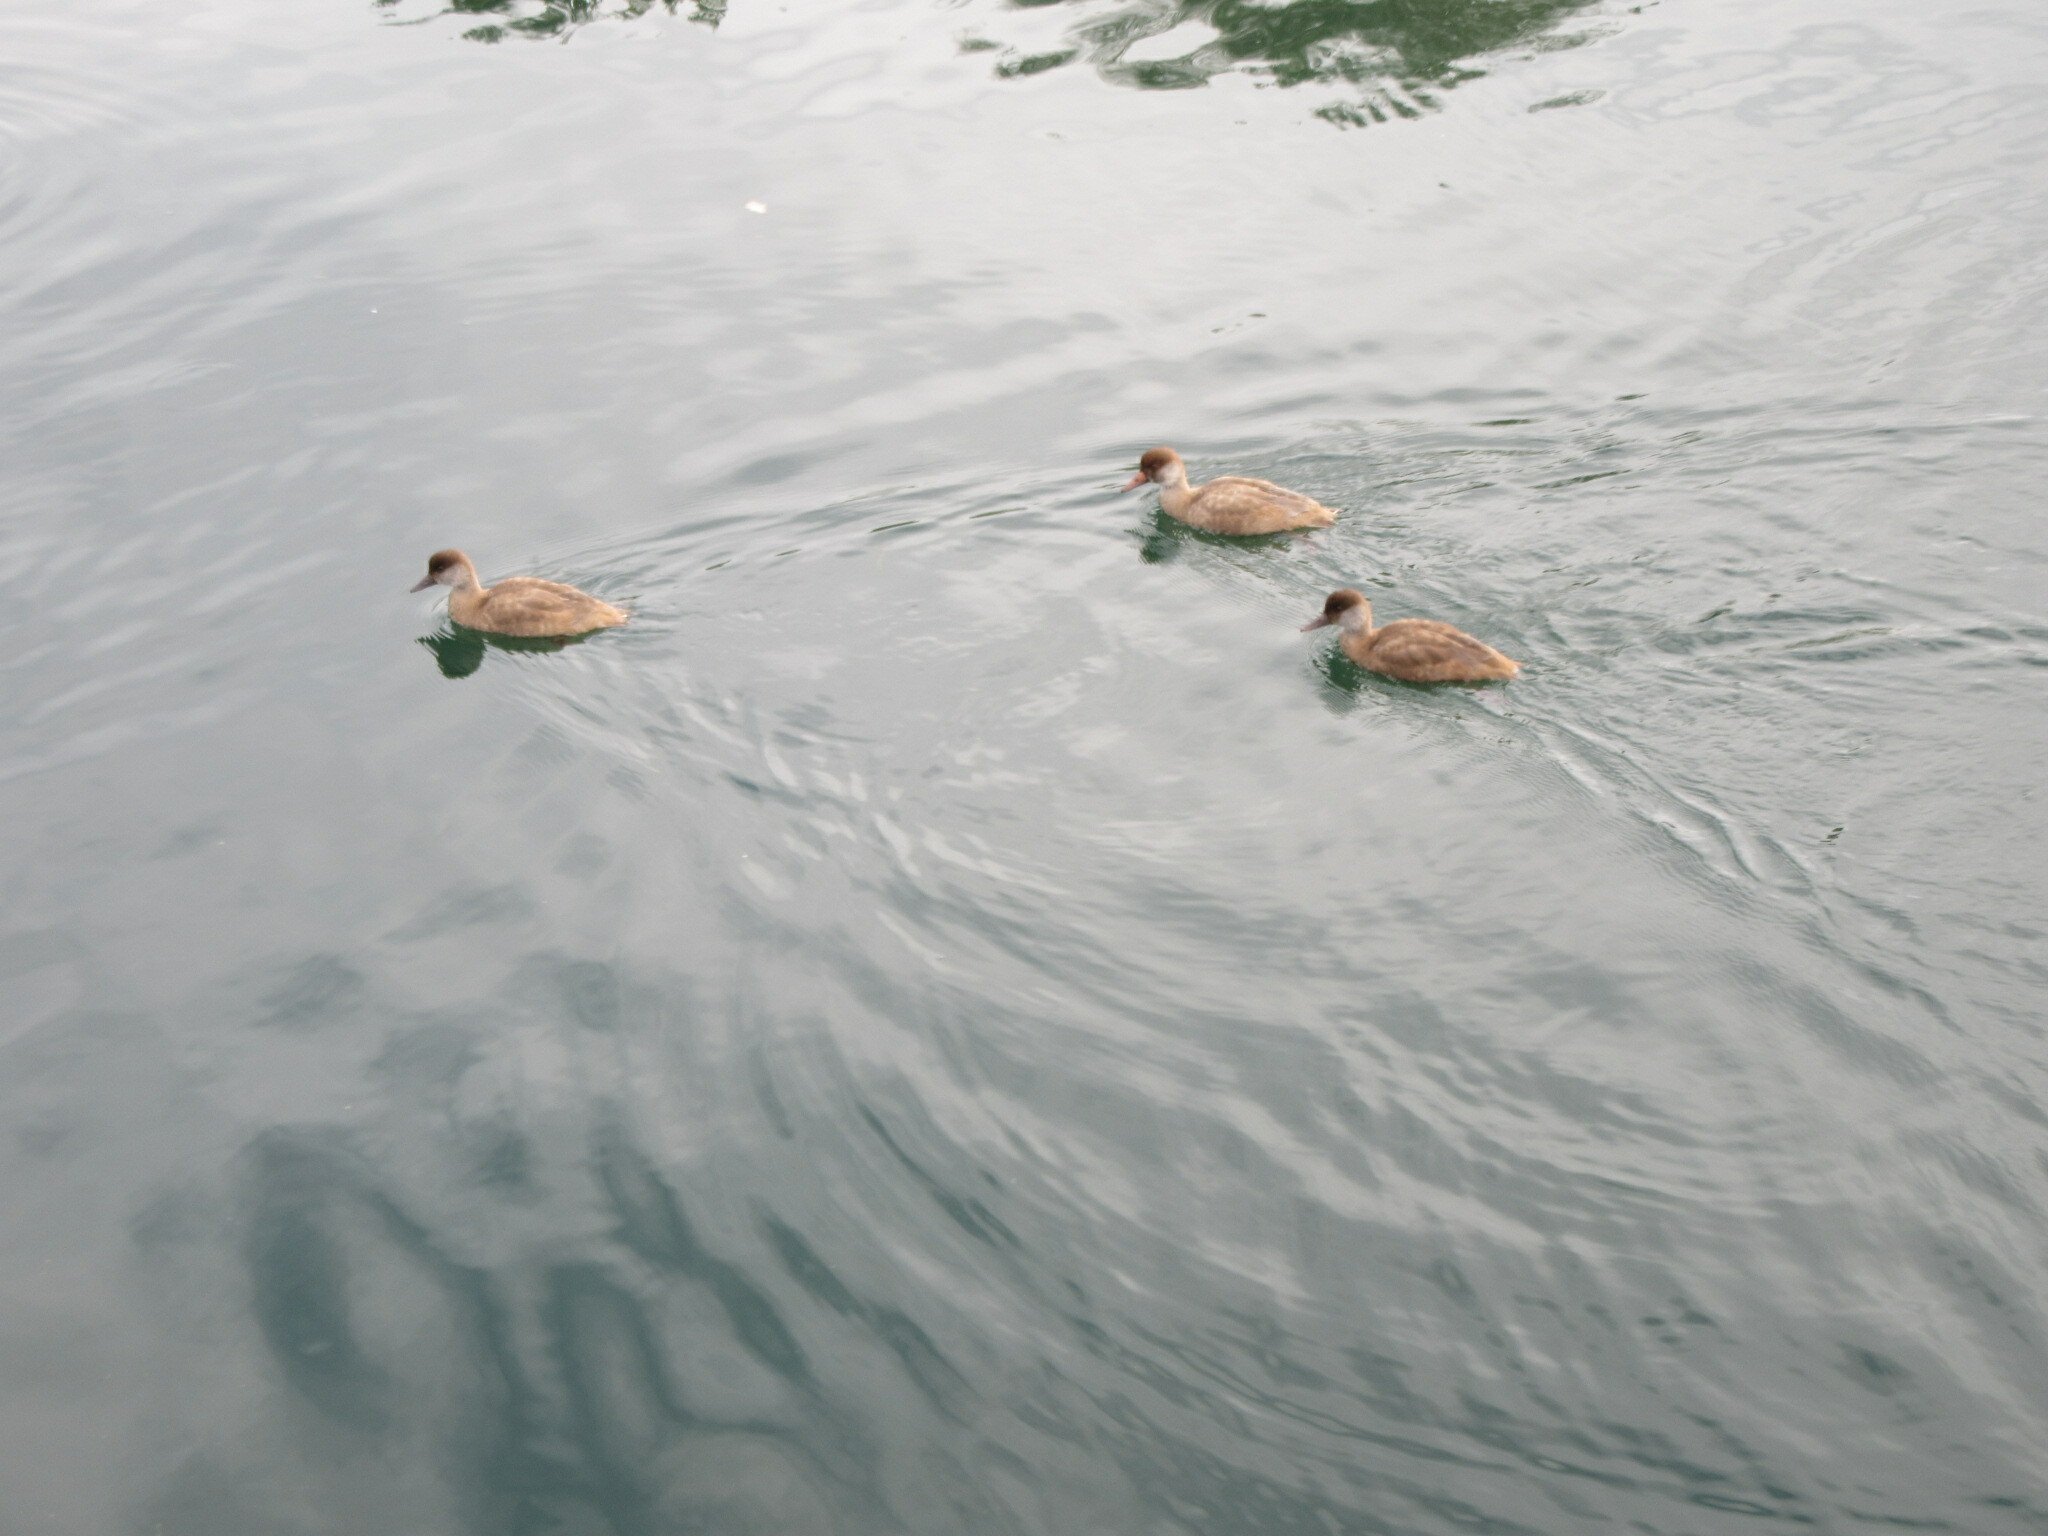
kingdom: Animalia
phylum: Chordata
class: Aves
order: Anseriformes
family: Anatidae
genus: Netta
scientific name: Netta rufina
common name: Red-crested pochard
